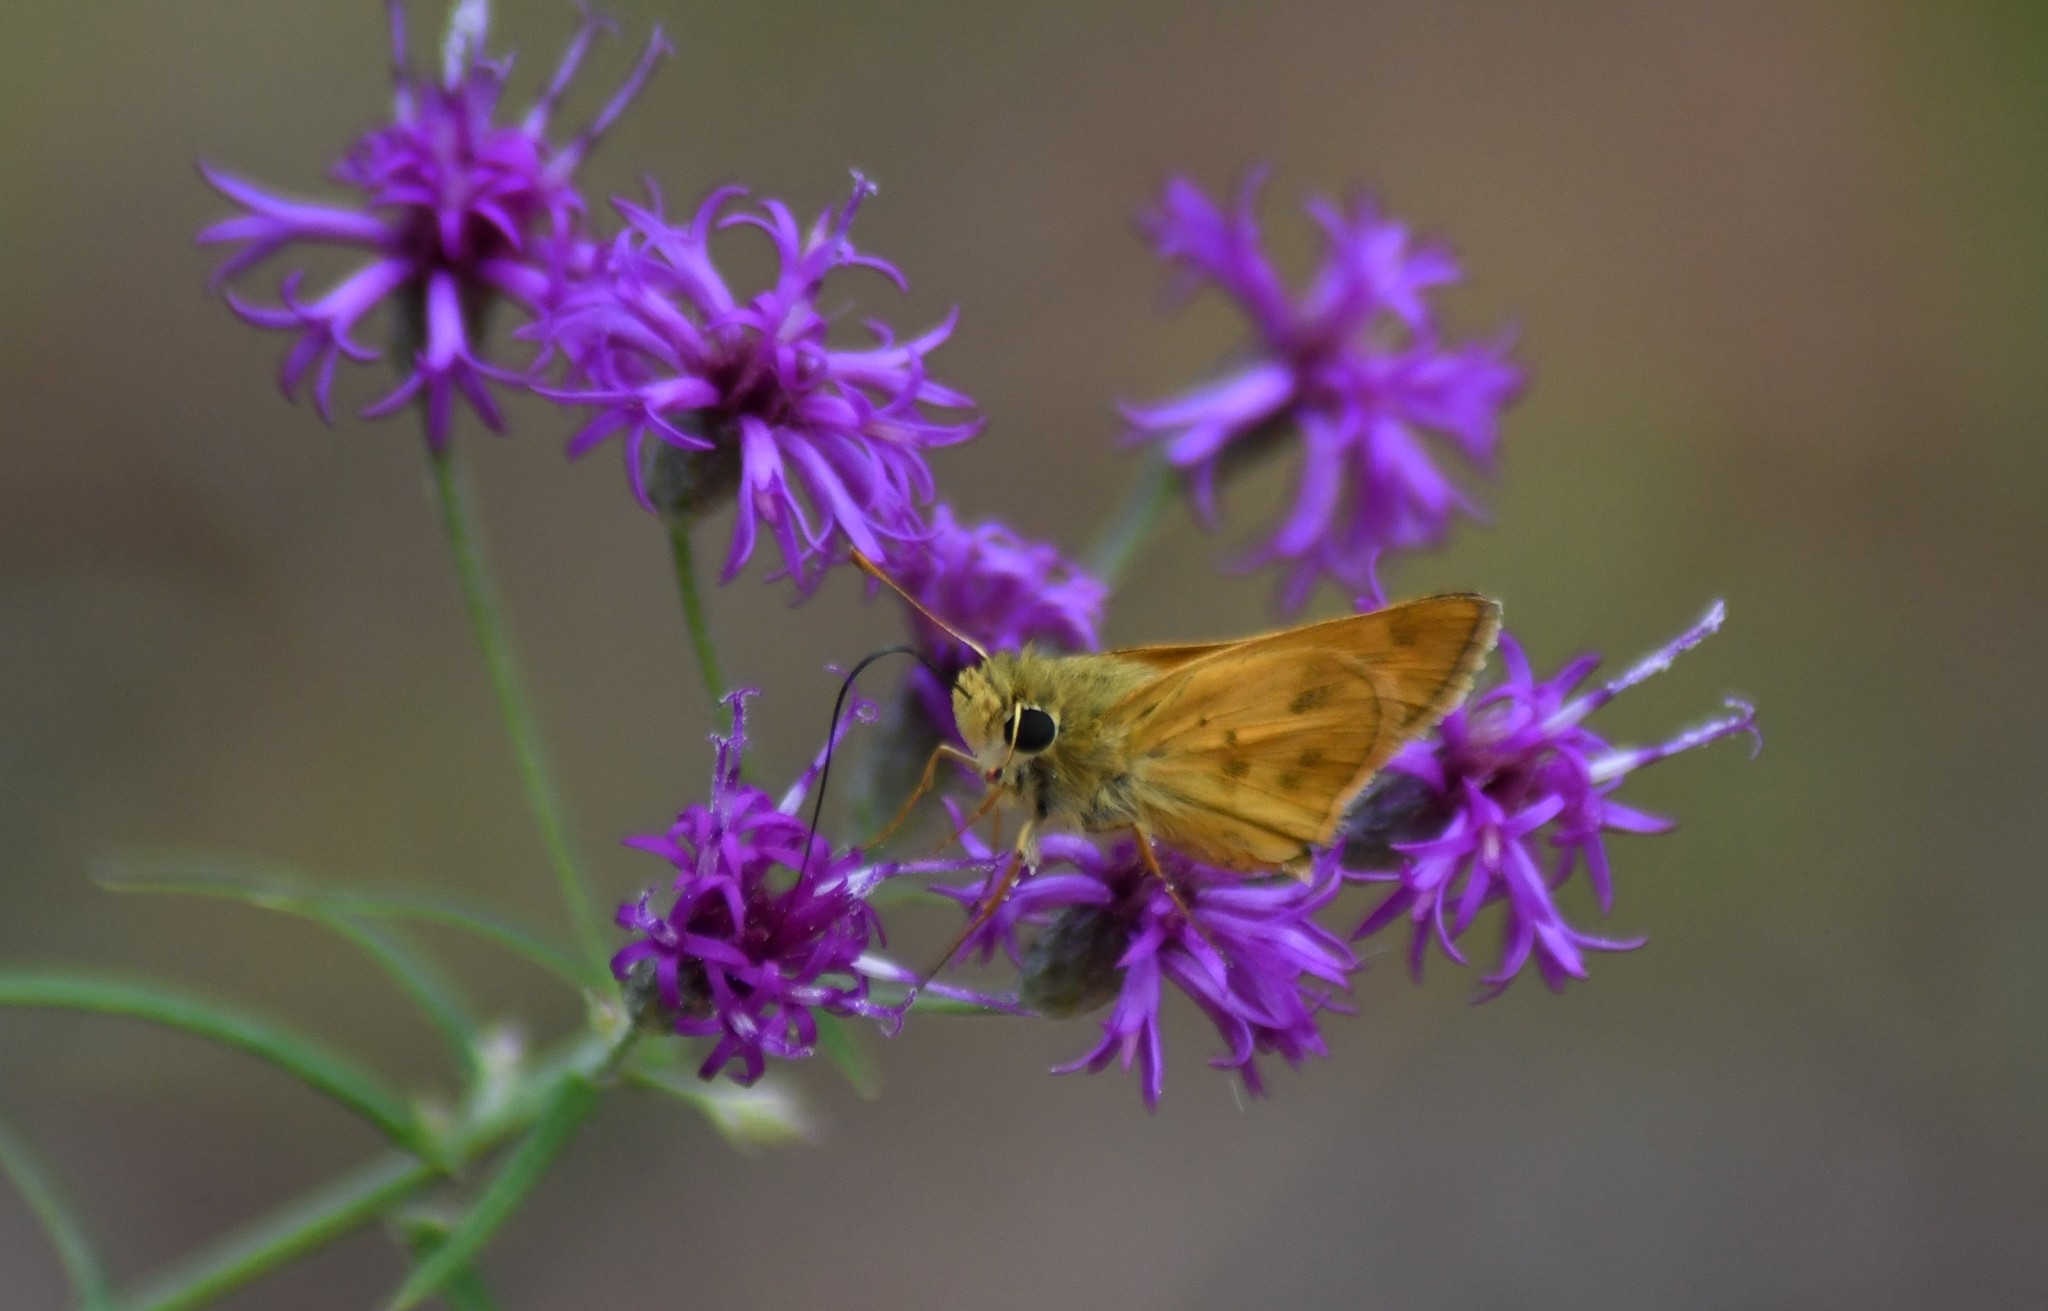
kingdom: Animalia
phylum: Arthropoda
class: Insecta
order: Lepidoptera
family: Hesperiidae
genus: Polites
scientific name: Polites vibex
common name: Whirlabout
